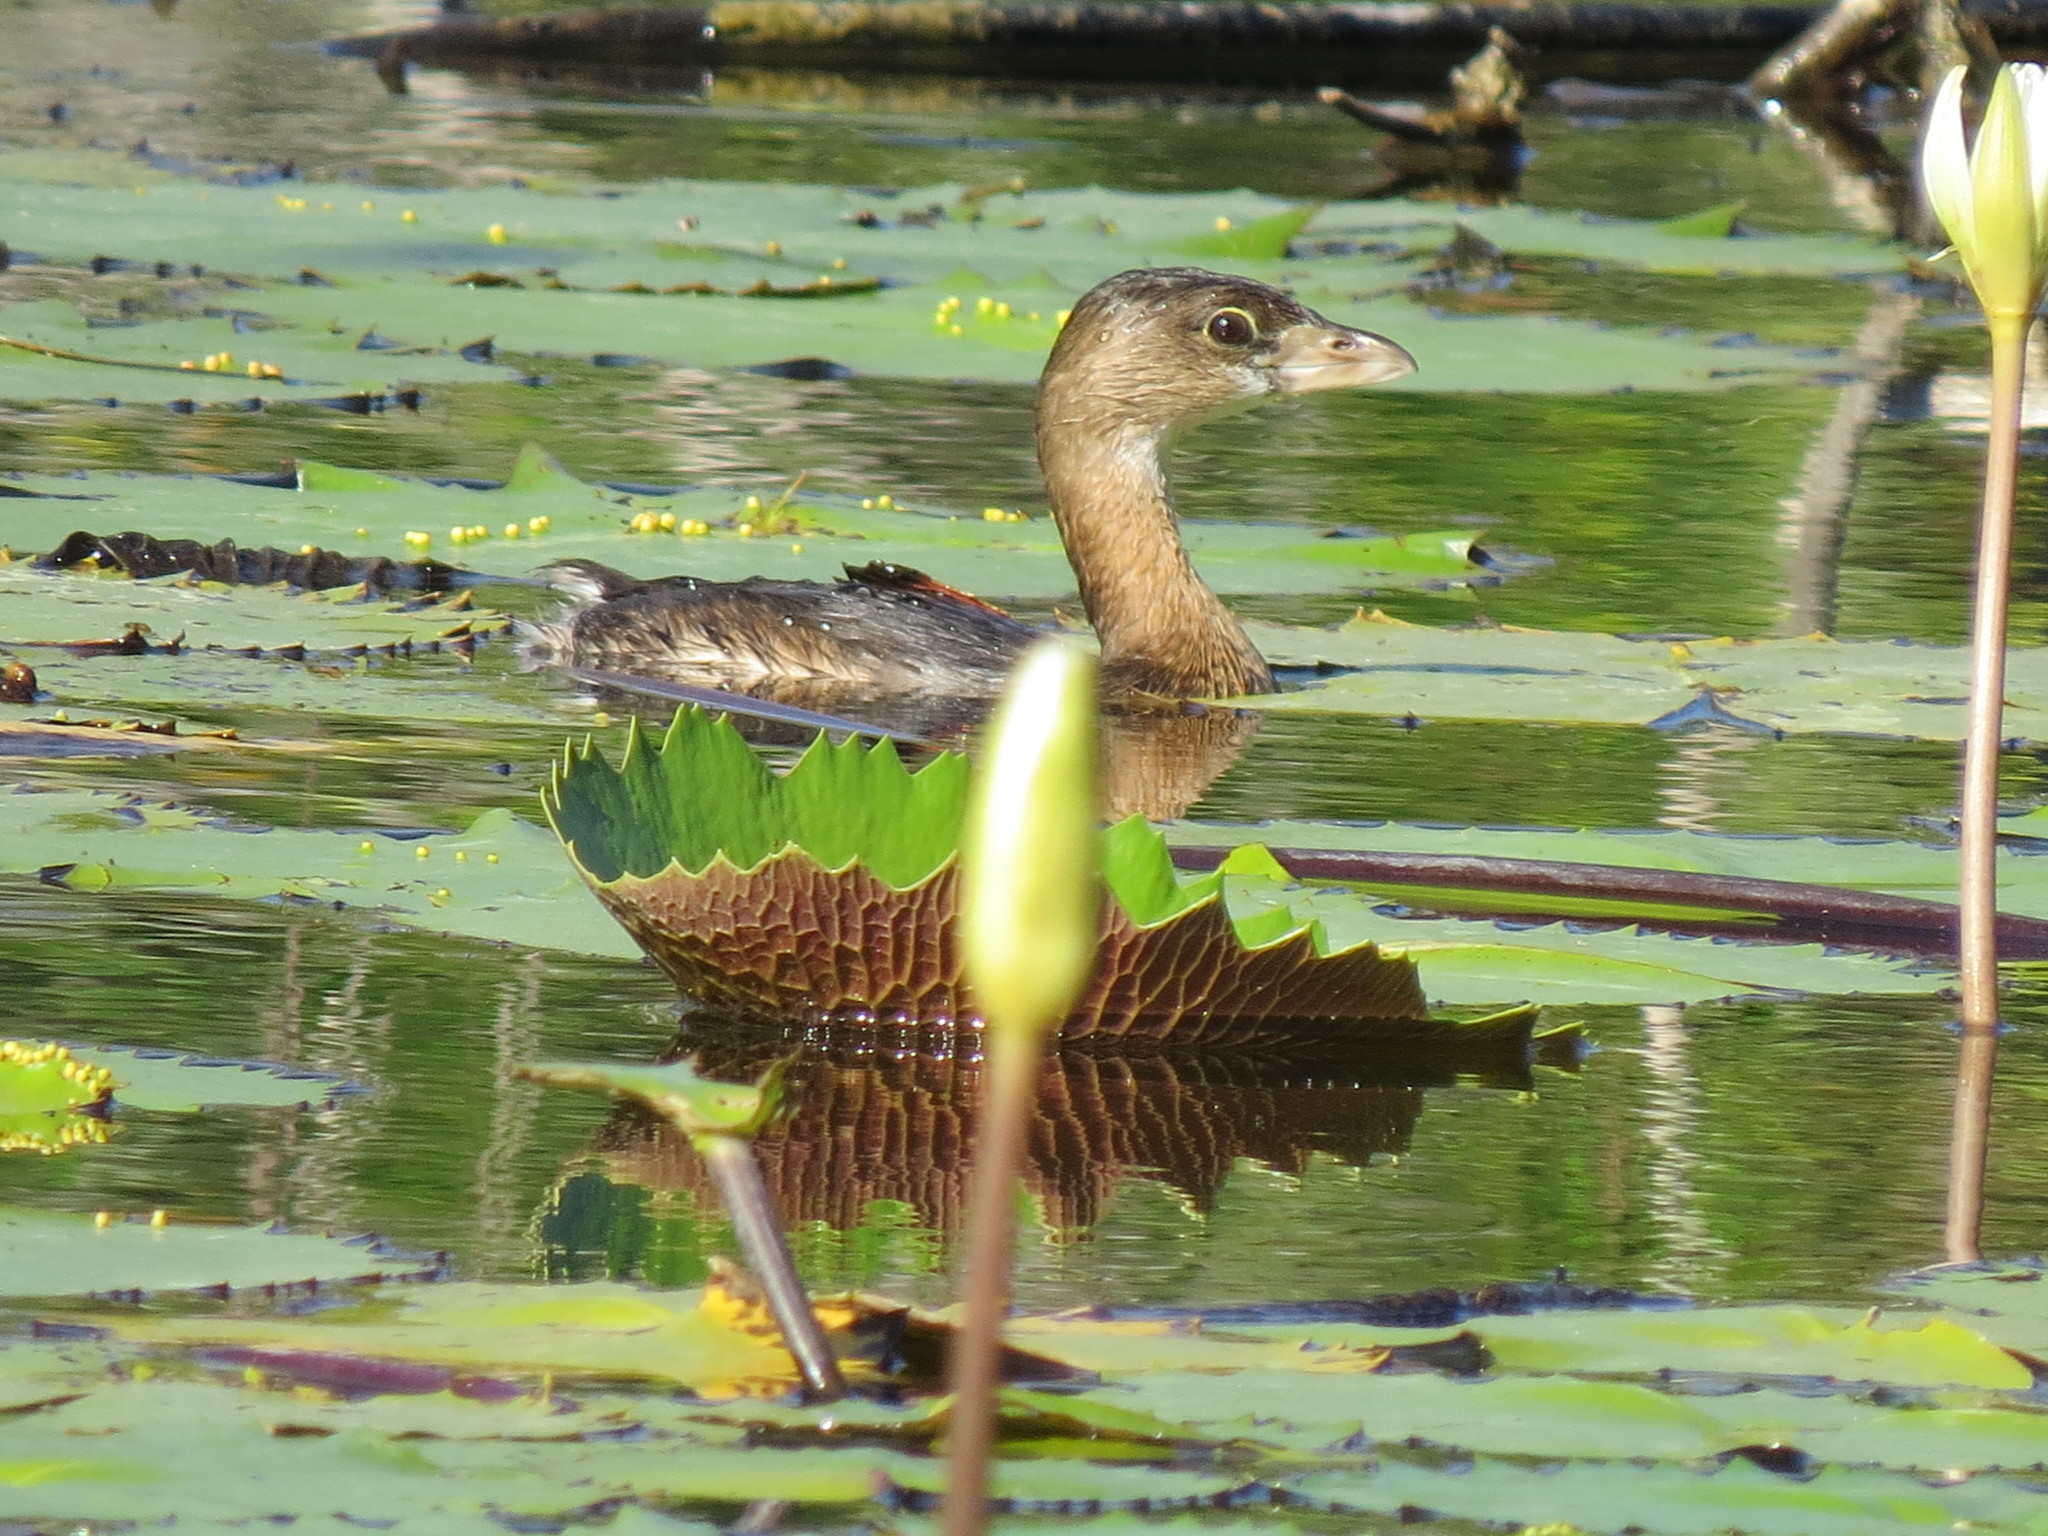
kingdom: Animalia
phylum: Chordata
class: Aves
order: Podicipediformes
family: Podicipedidae
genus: Podilymbus
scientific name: Podilymbus podiceps
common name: Pied-billed grebe
